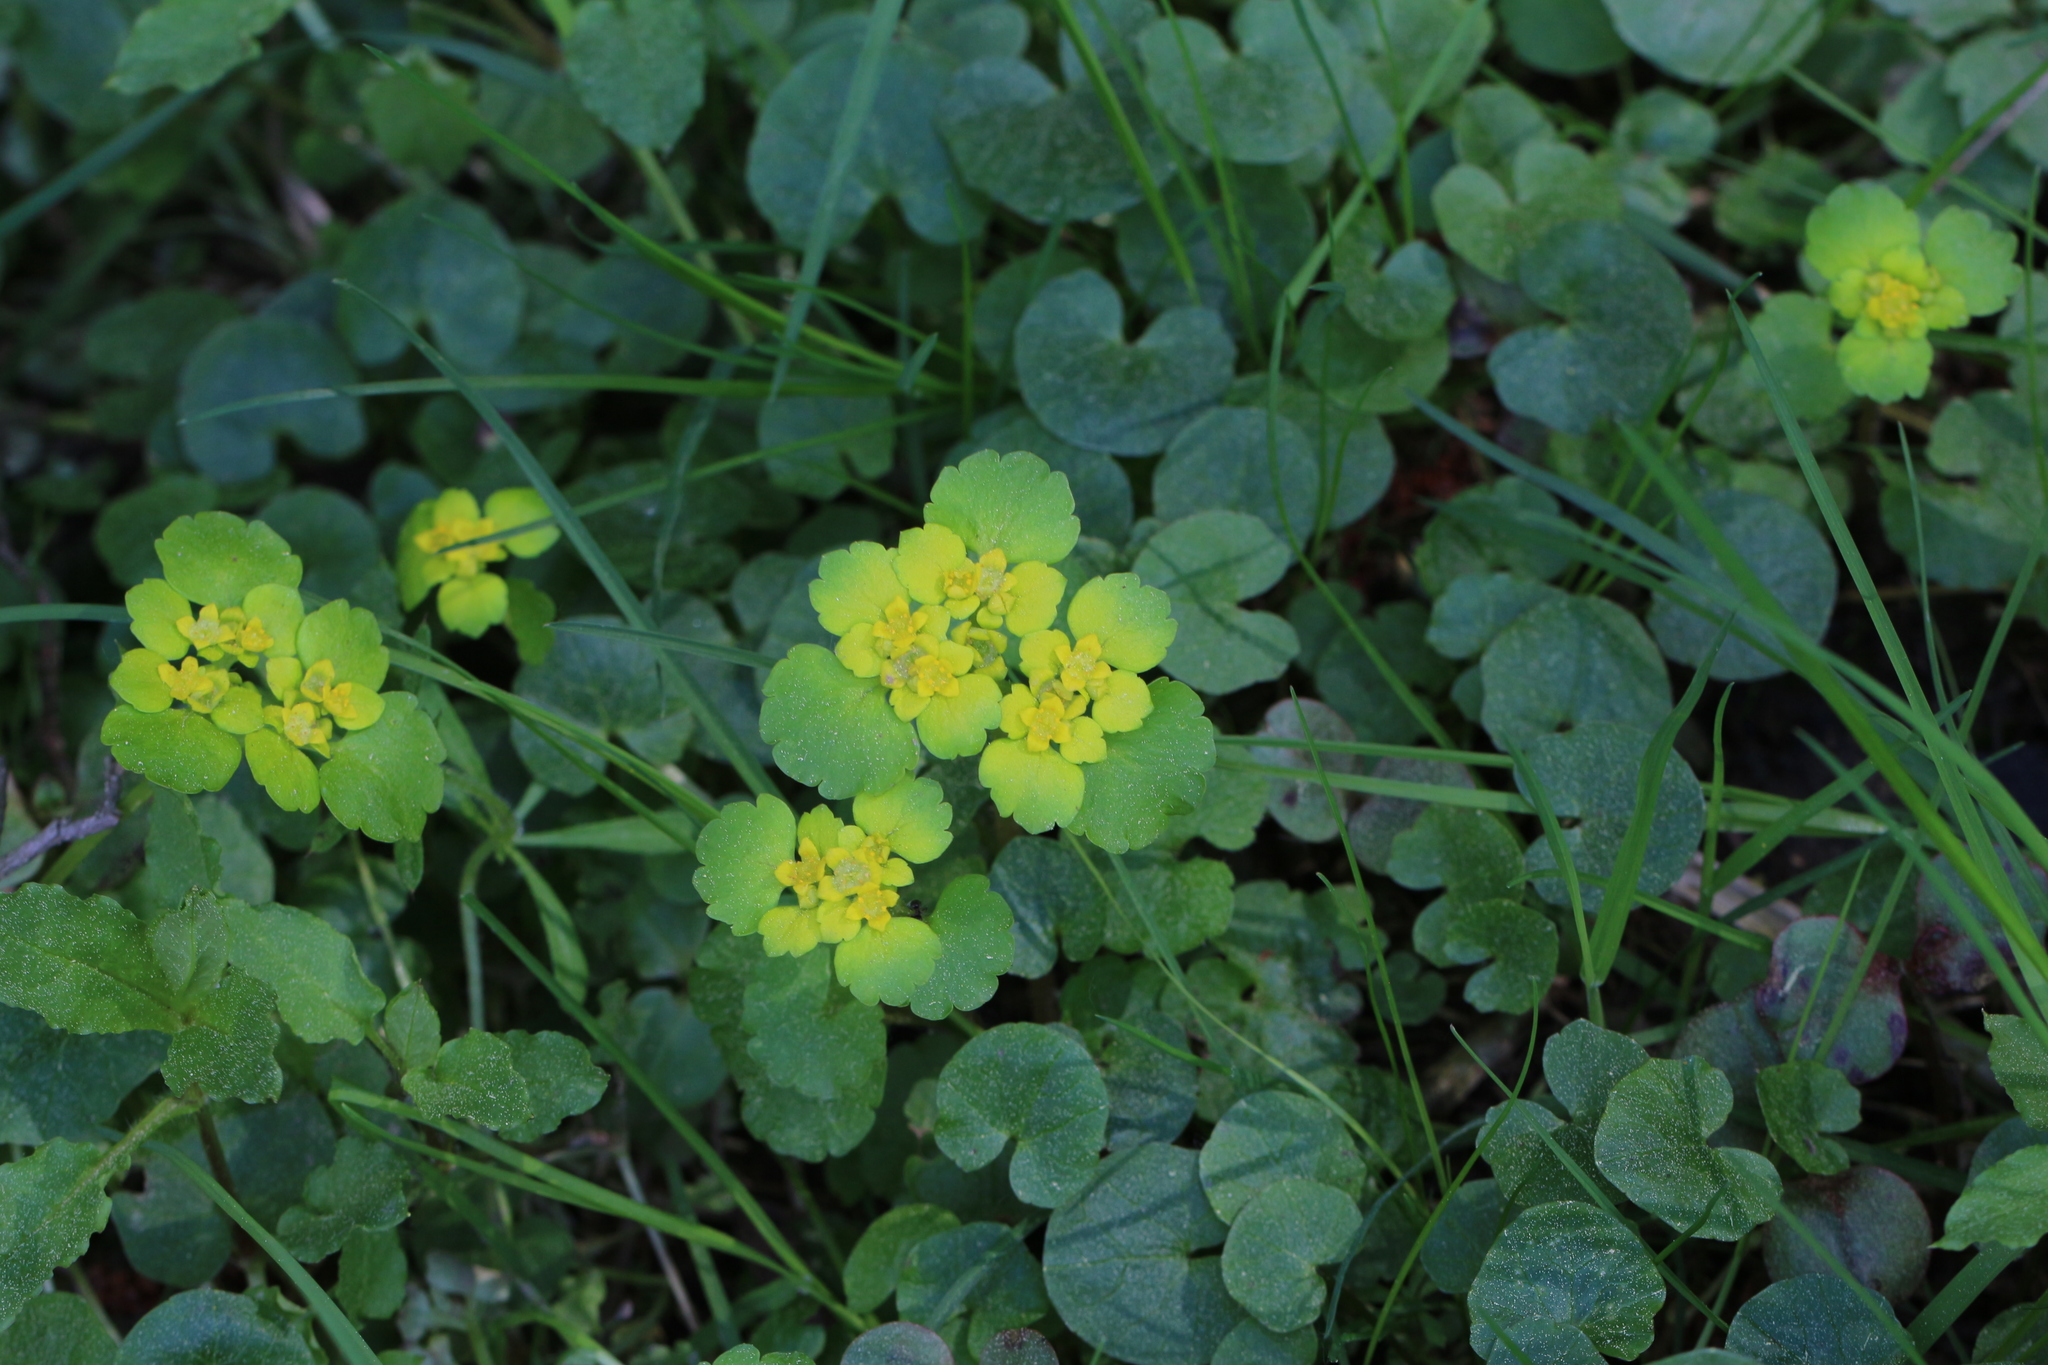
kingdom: Plantae
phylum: Tracheophyta
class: Magnoliopsida
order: Saxifragales
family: Saxifragaceae
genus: Chrysosplenium
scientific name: Chrysosplenium alternifolium
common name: Alternate-leaved golden-saxifrage
